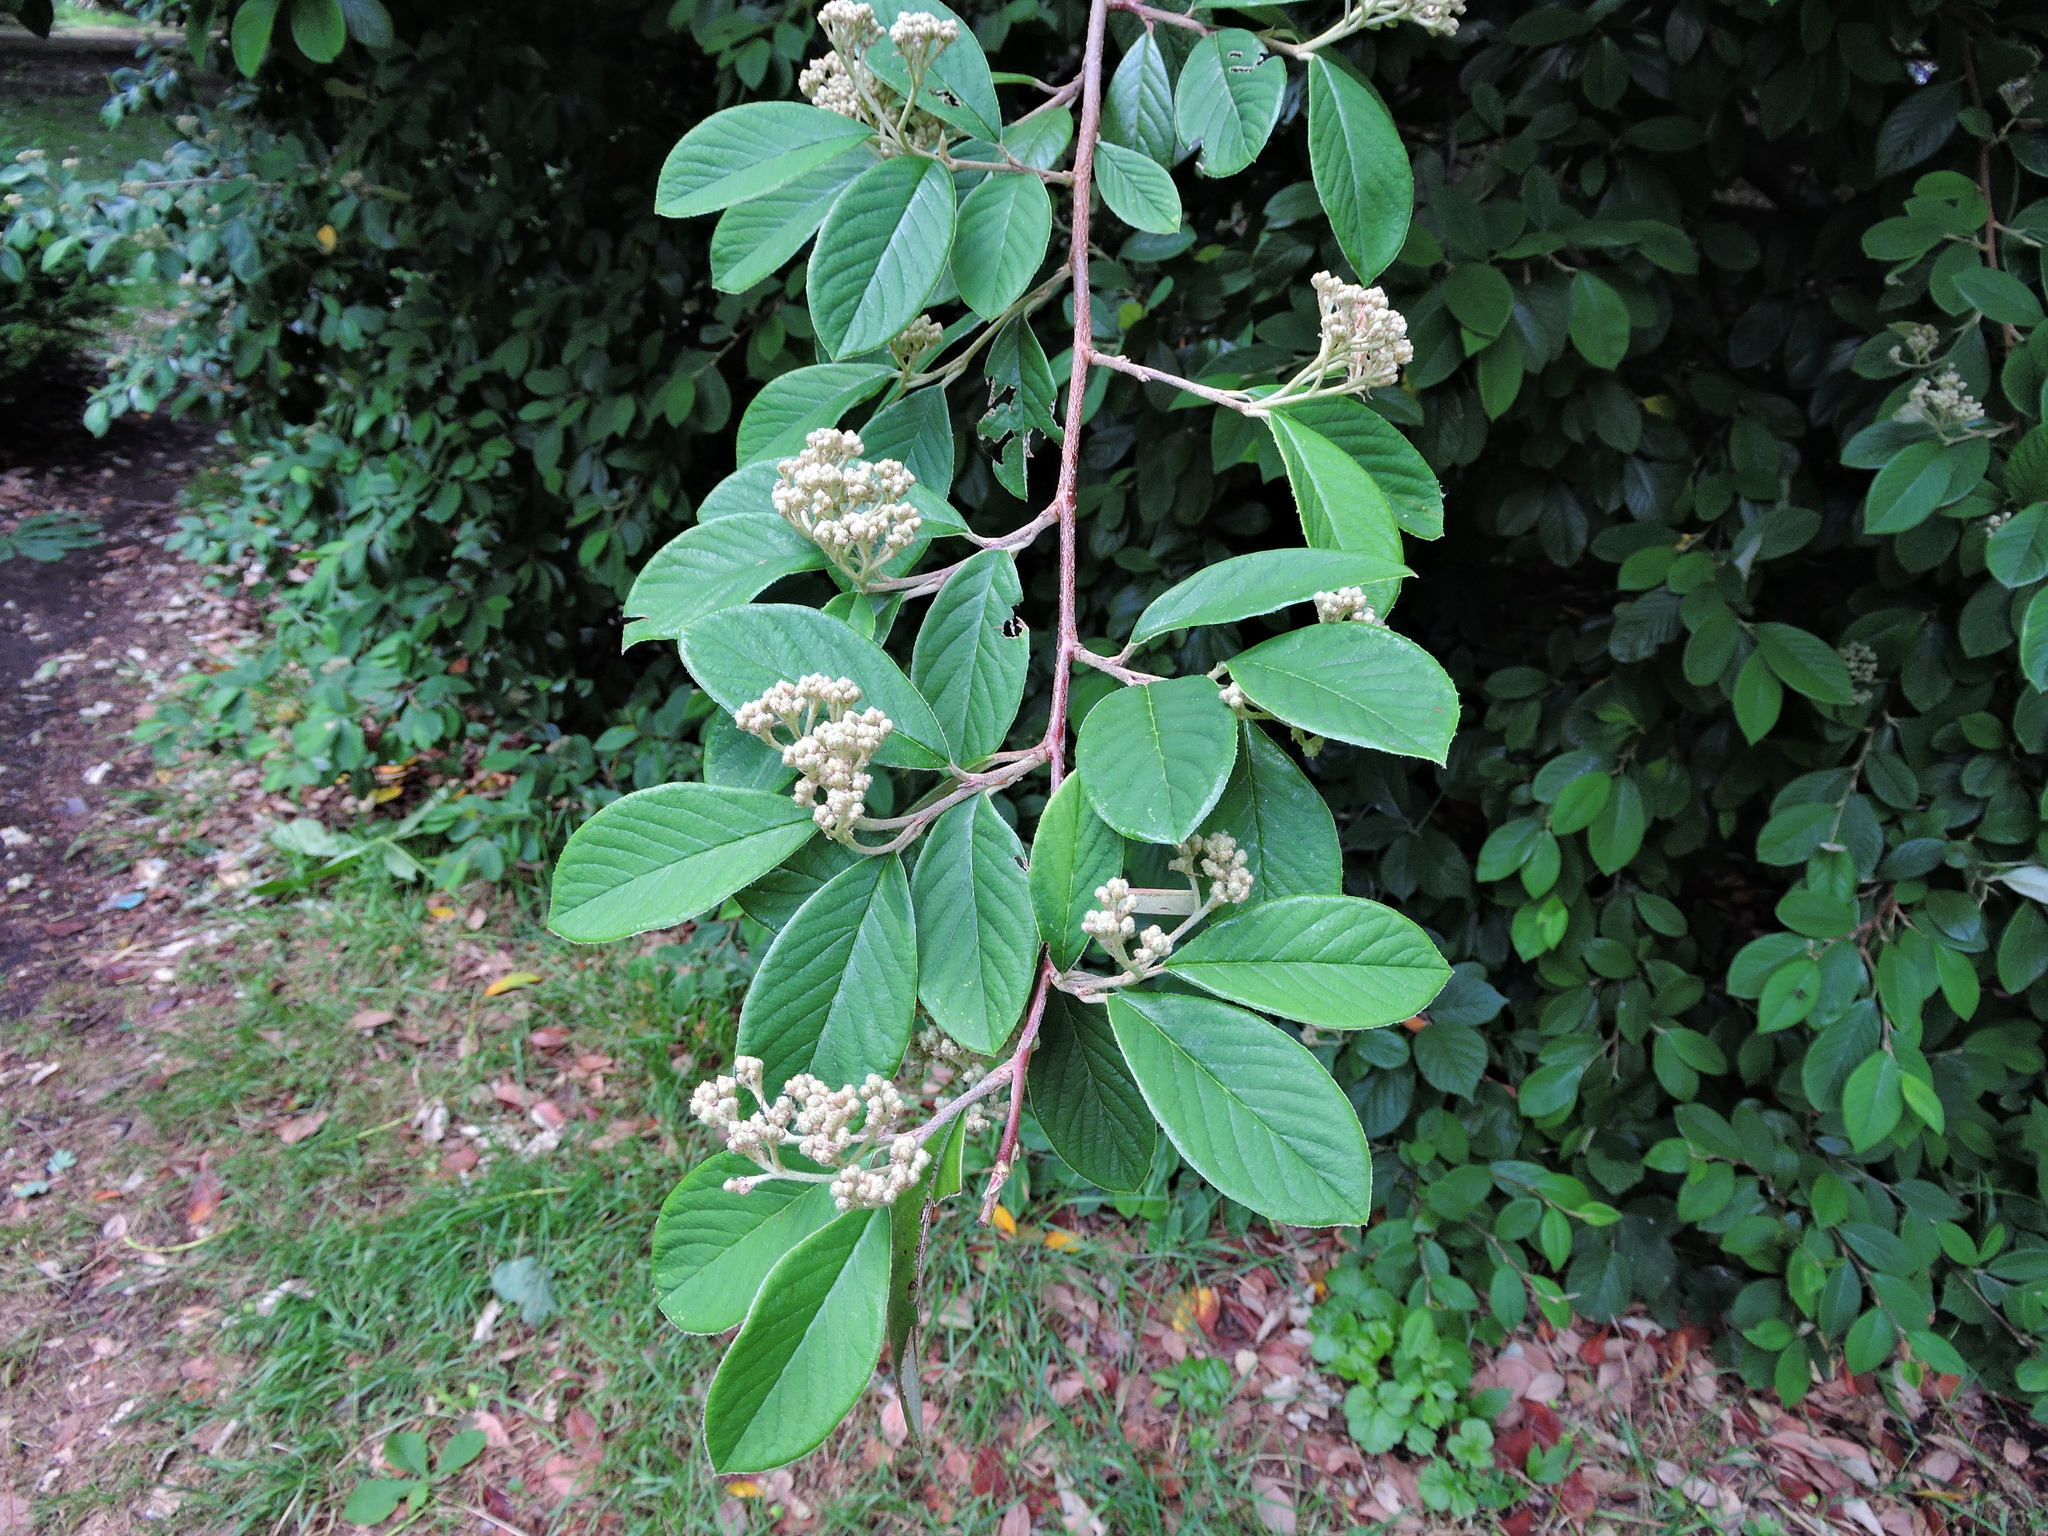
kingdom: Plantae
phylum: Tracheophyta
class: Magnoliopsida
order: Rosales
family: Rosaceae
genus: Cotoneaster
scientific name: Cotoneaster coriaceus
